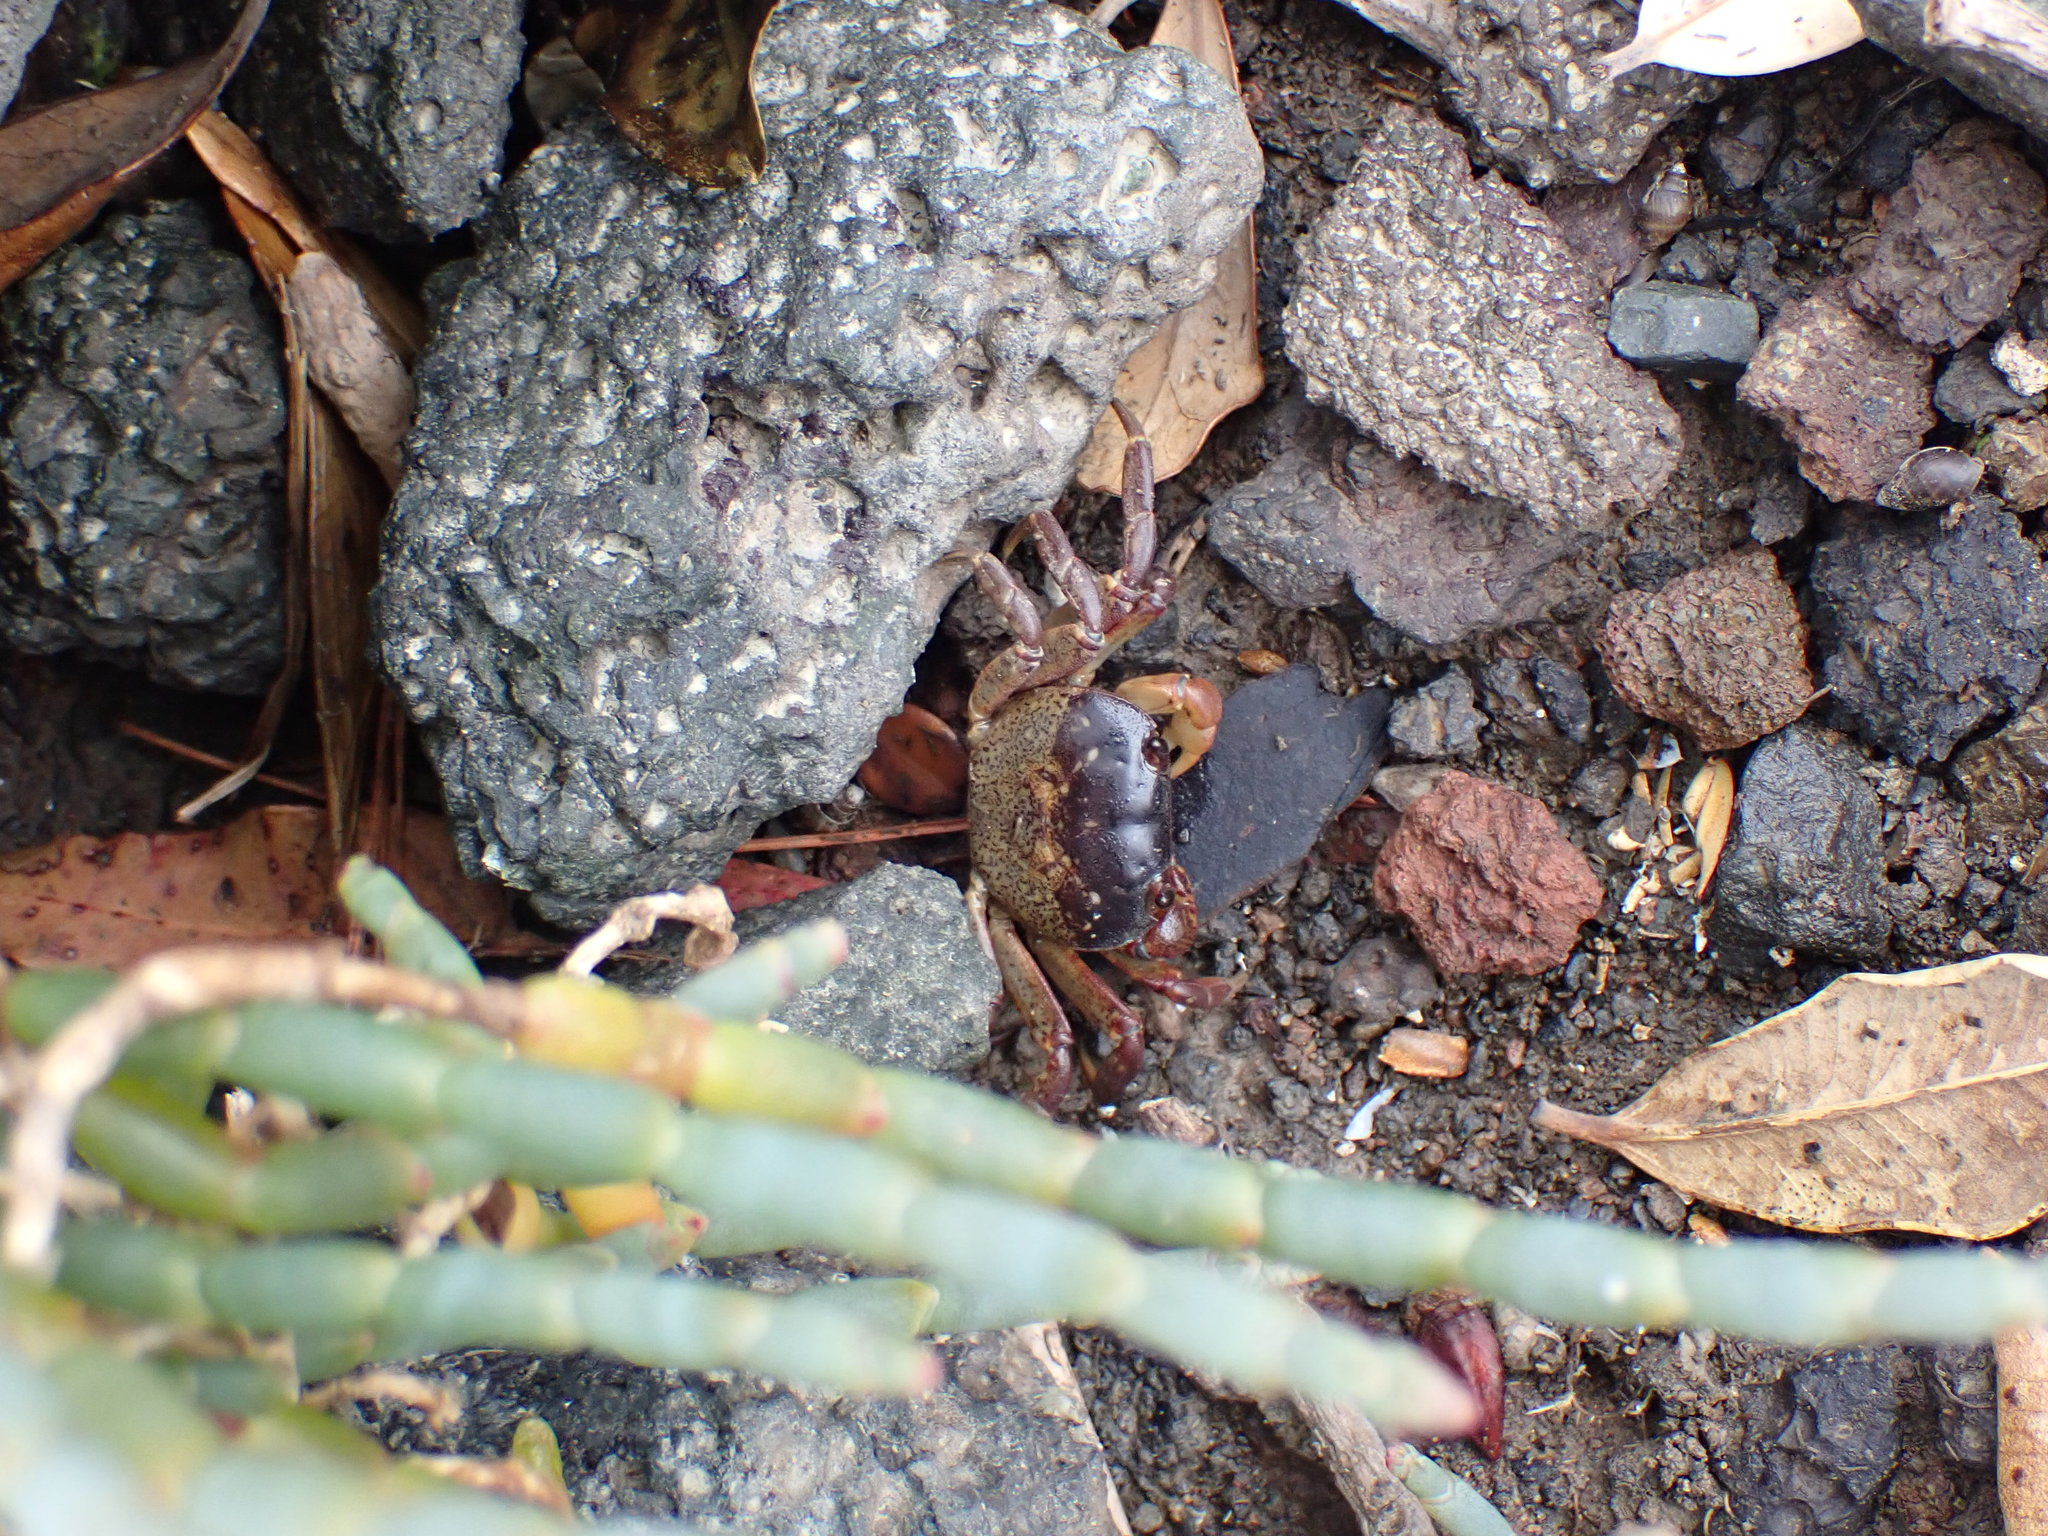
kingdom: Animalia
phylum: Arthropoda
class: Malacostraca
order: Decapoda
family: Varunidae
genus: Cyclograpsus
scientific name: Cyclograpsus lavauxi
